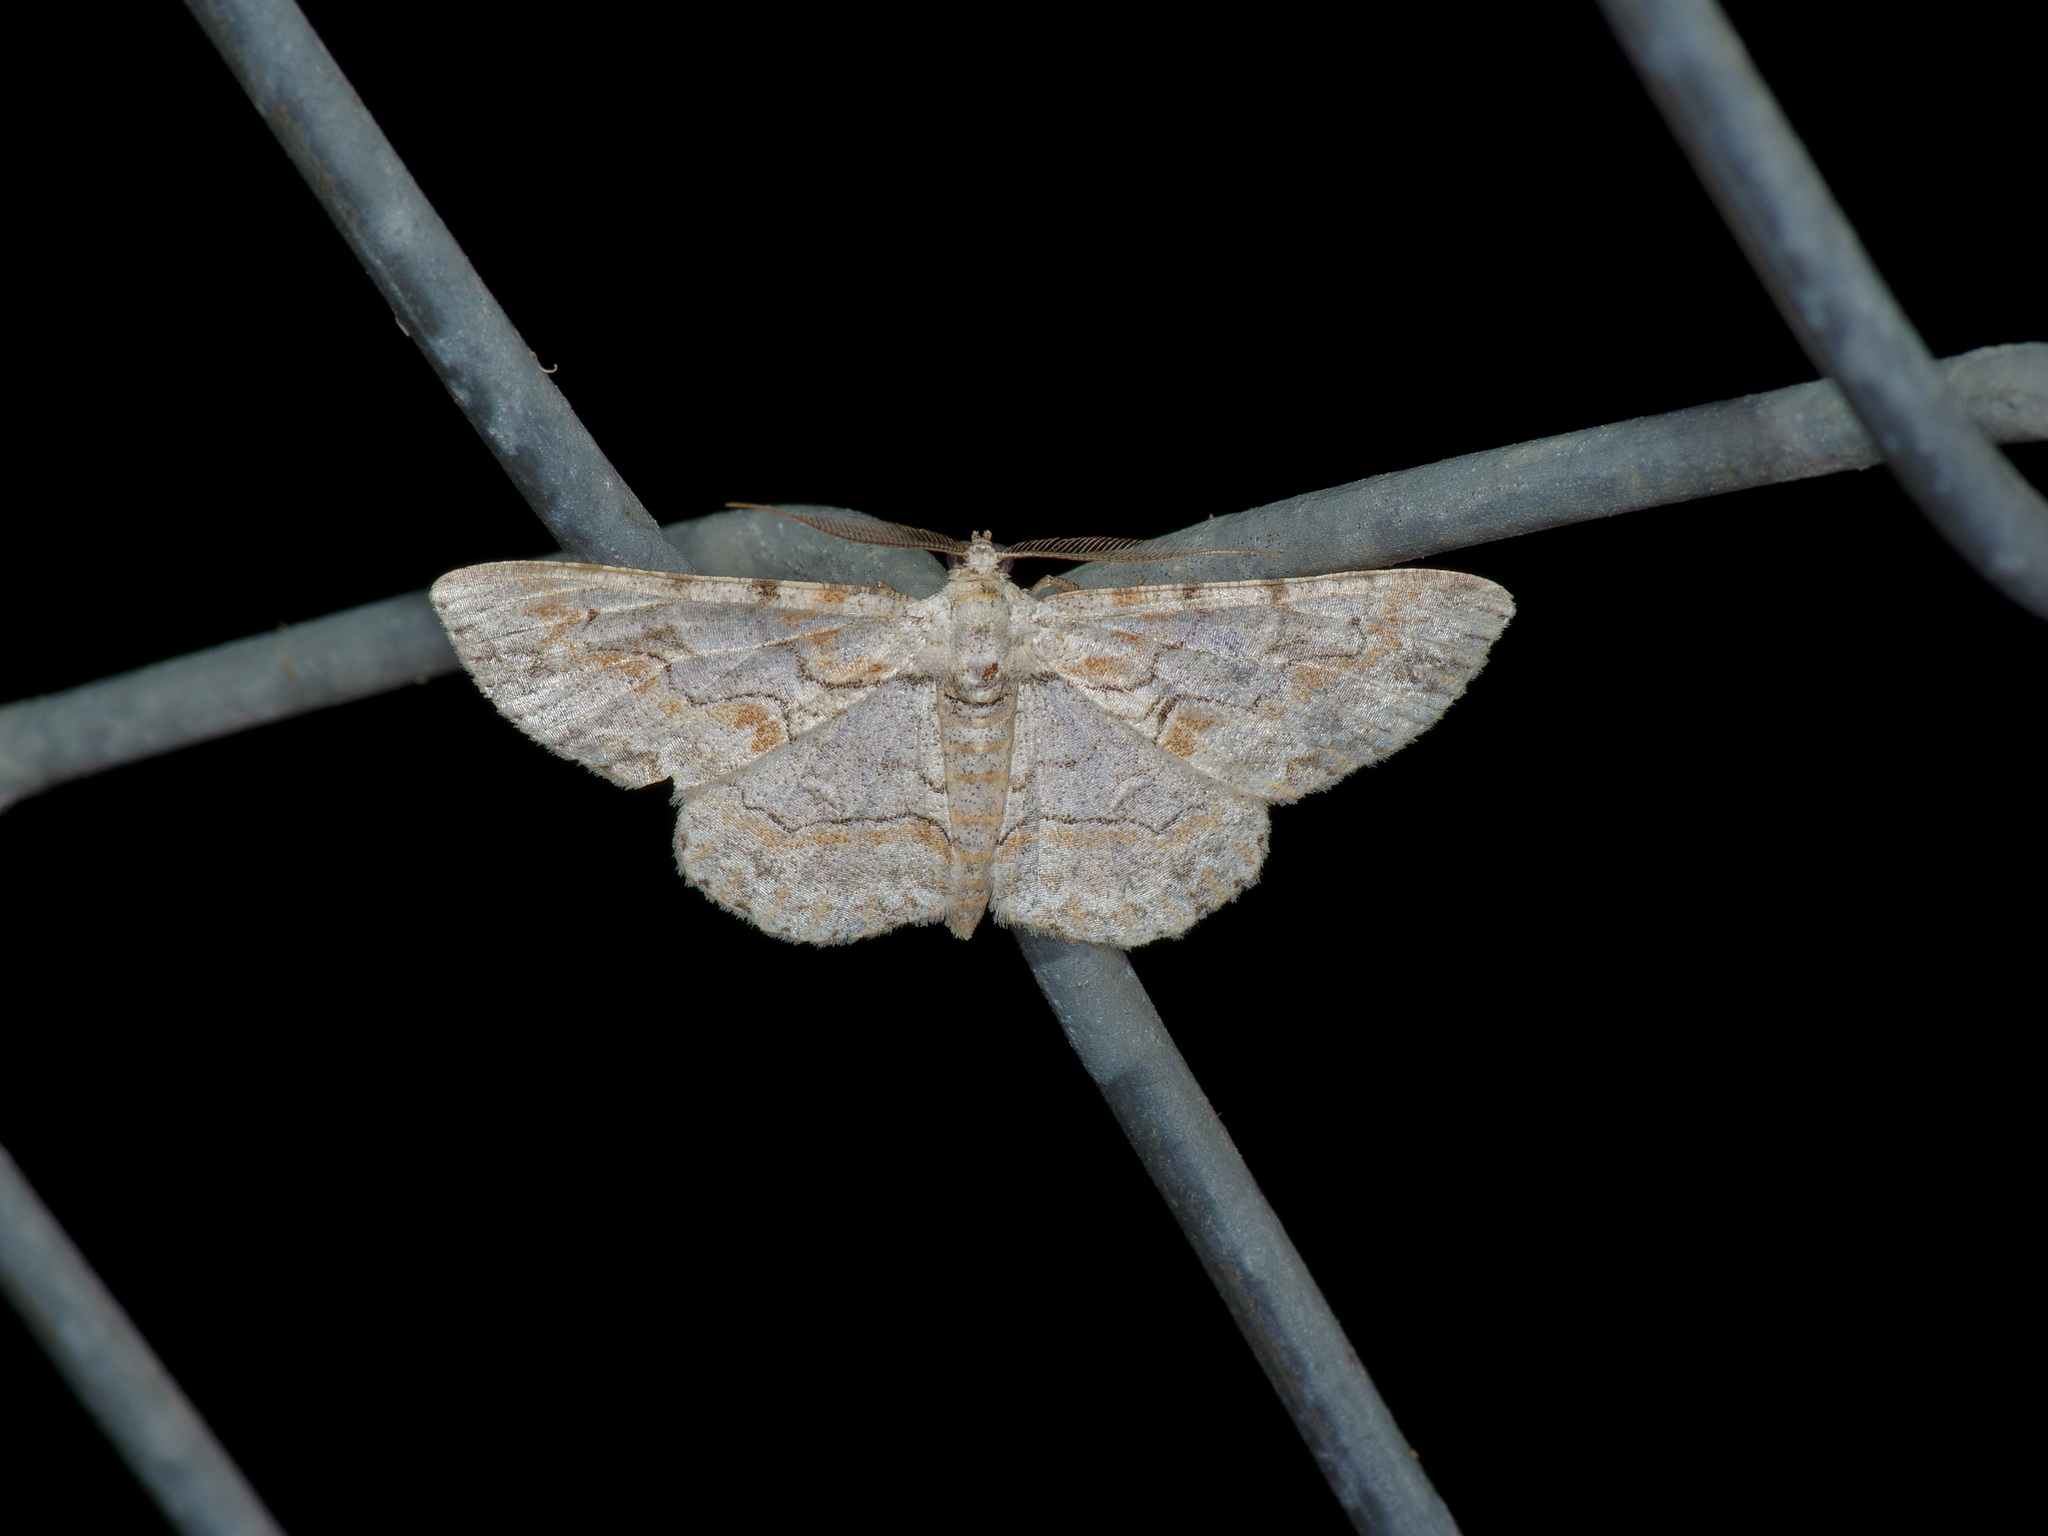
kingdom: Animalia
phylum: Arthropoda
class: Insecta
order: Lepidoptera
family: Geometridae
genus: Iridopsis
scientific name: Iridopsis defectaria
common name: Brown-shaded gray
